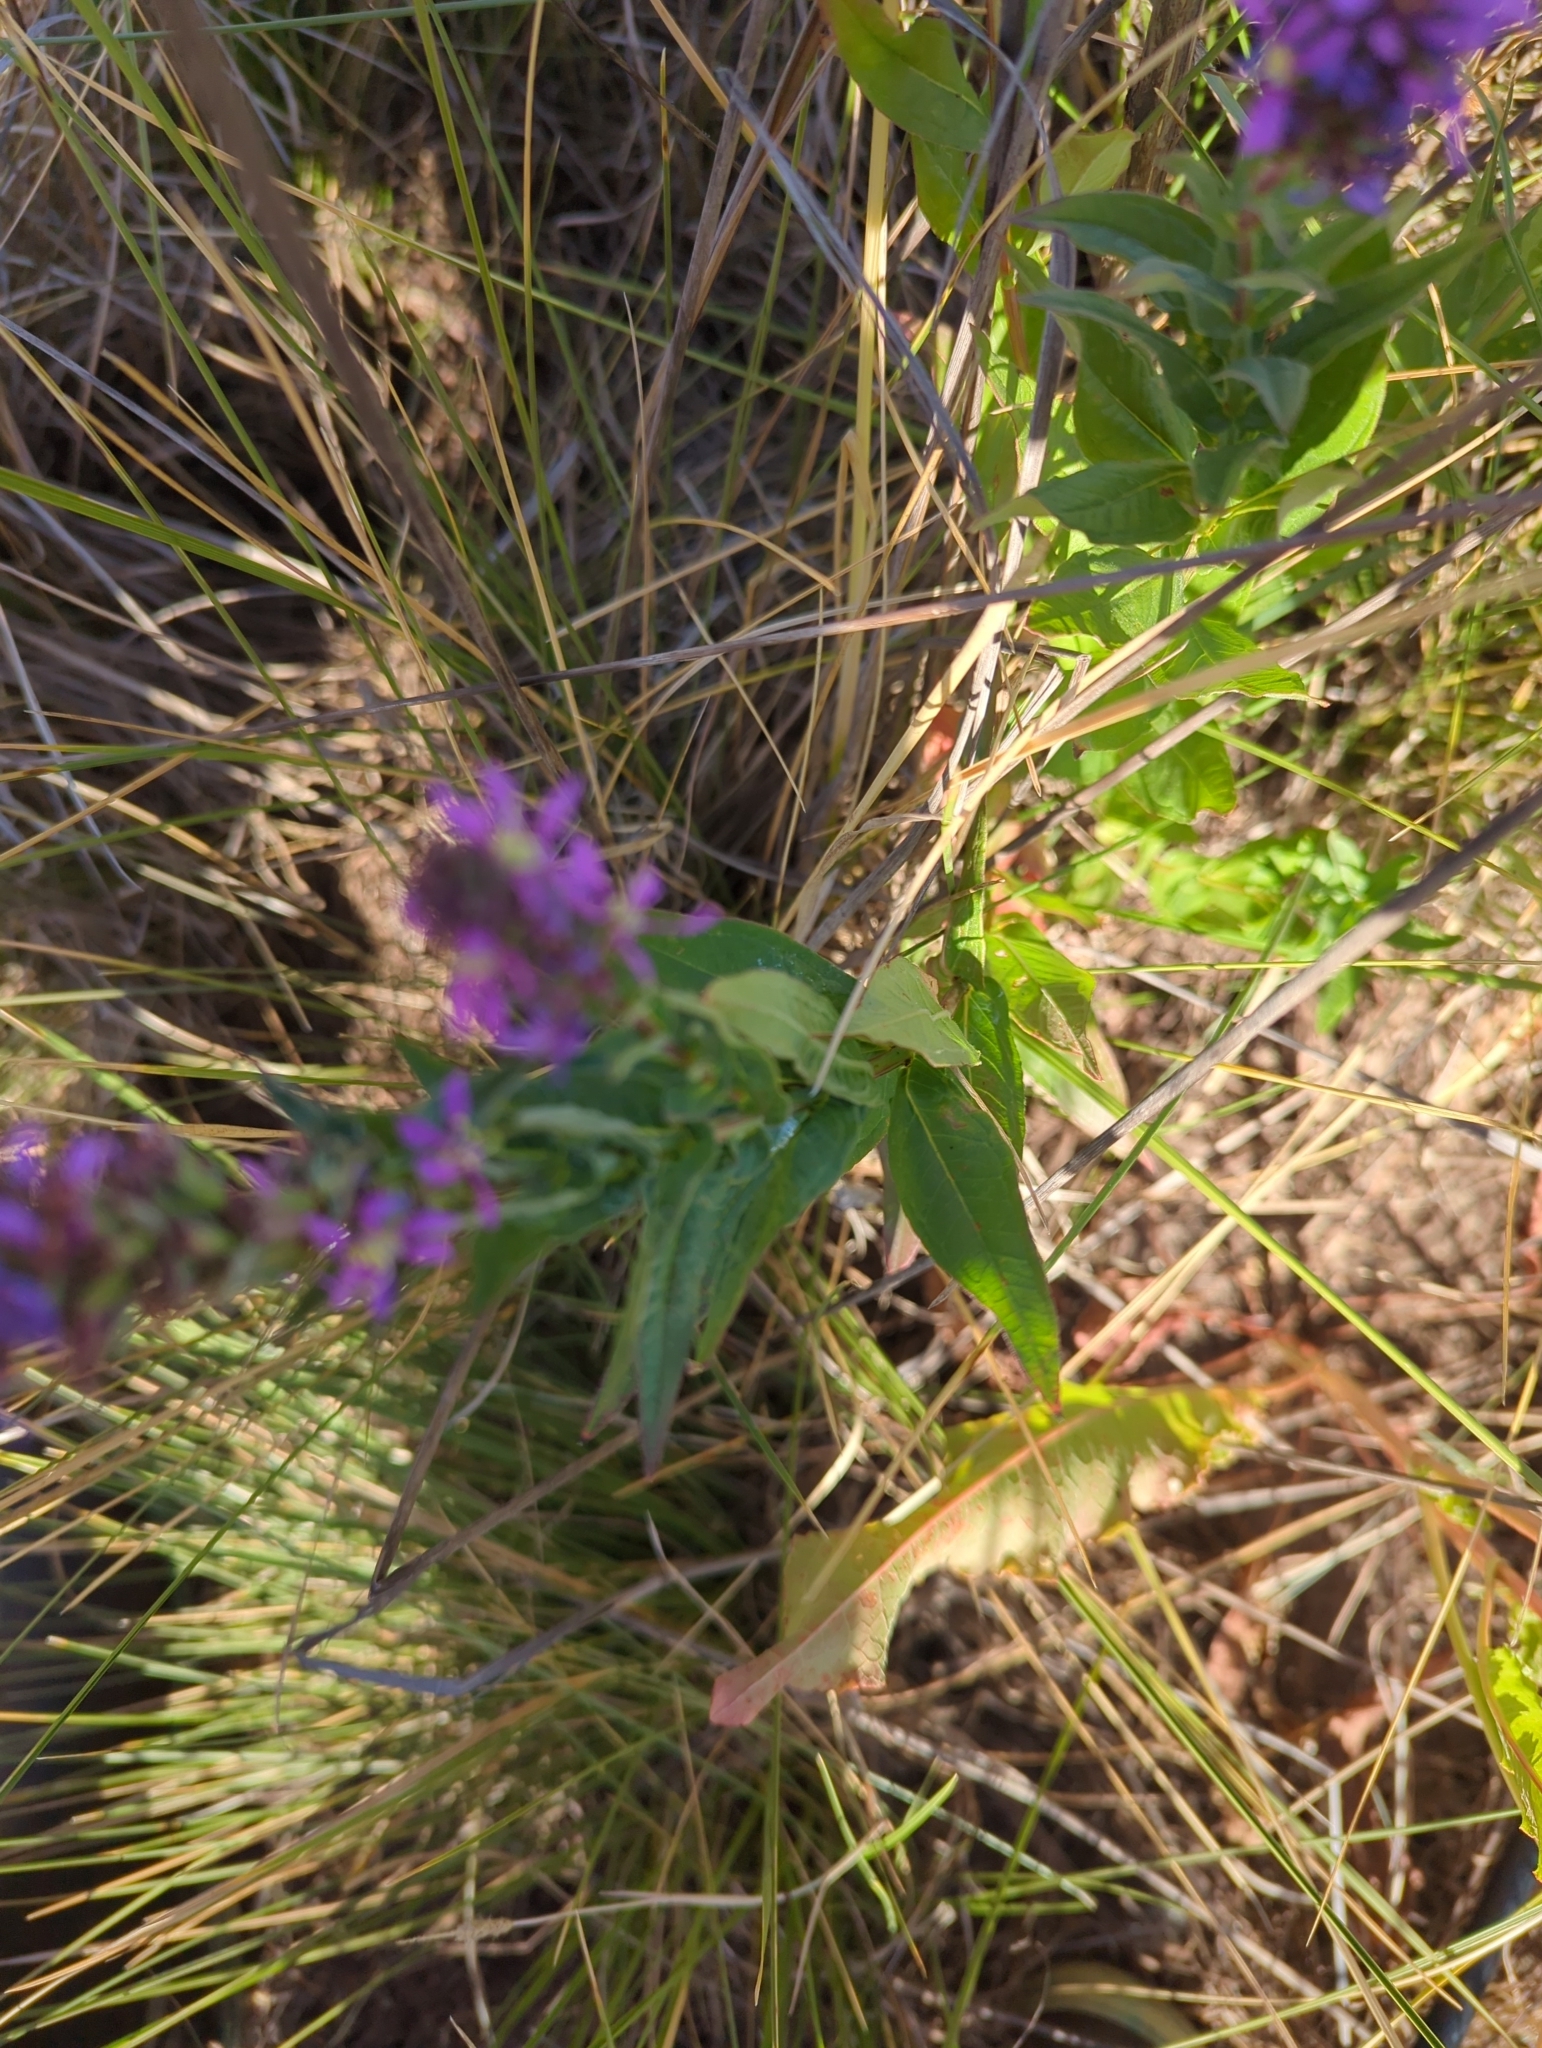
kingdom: Plantae
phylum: Tracheophyta
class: Magnoliopsida
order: Myrtales
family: Lythraceae
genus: Lythrum
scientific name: Lythrum salicaria
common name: Purple loosestrife
